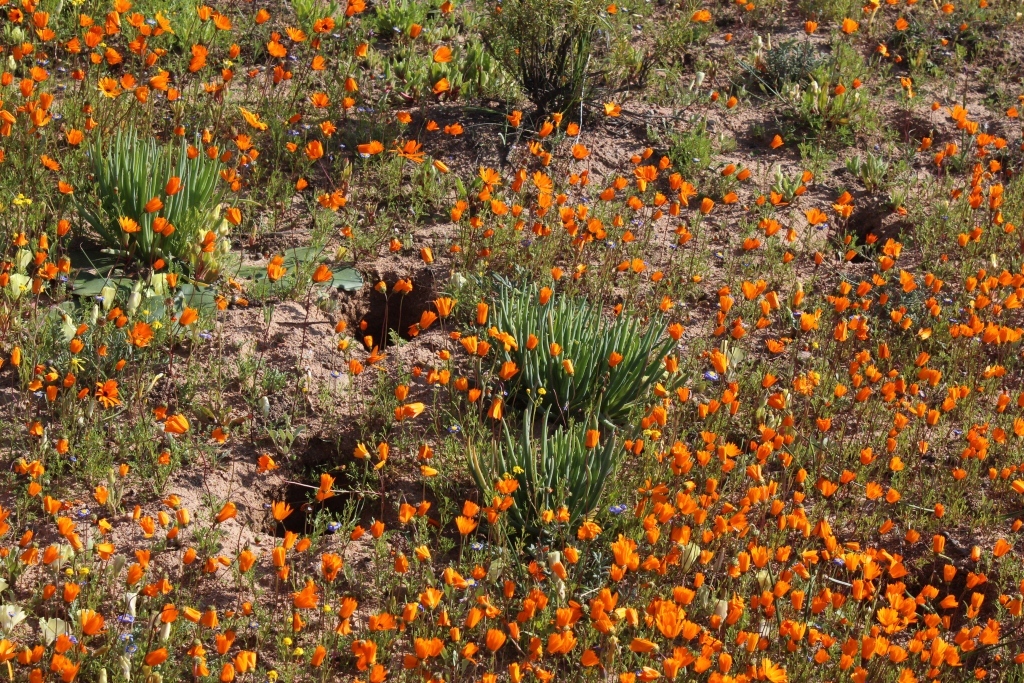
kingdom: Plantae
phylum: Tracheophyta
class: Magnoliopsida
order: Caryophyllales
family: Aizoaceae
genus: Conicosia
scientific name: Conicosia elongata
